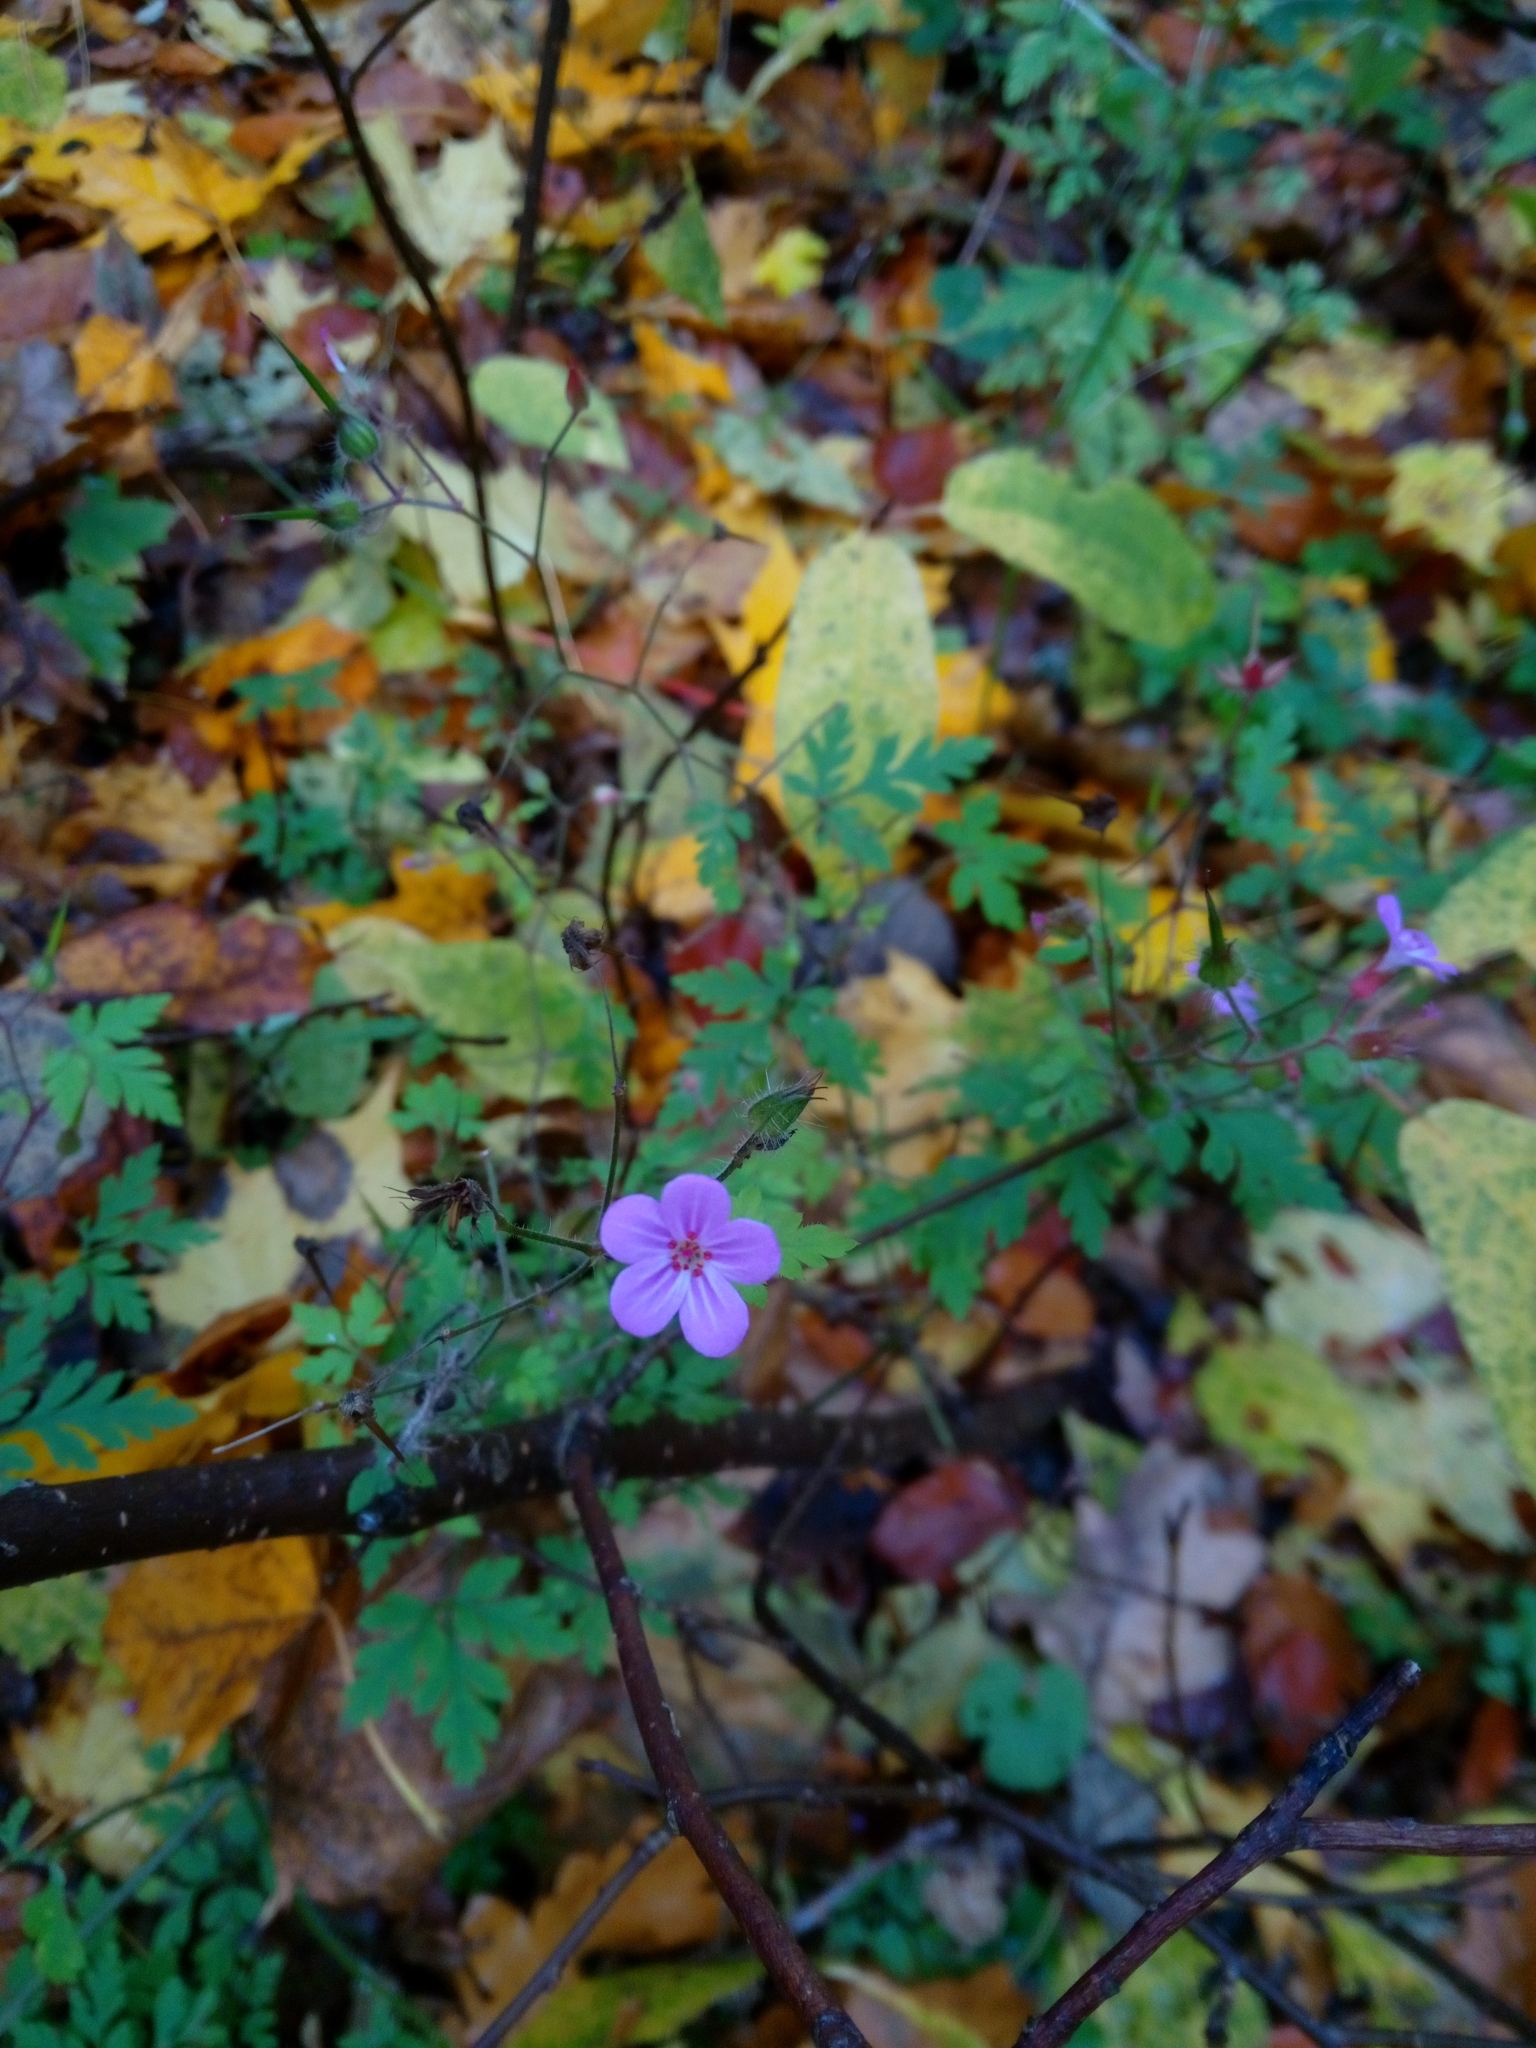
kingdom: Plantae
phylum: Tracheophyta
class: Magnoliopsida
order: Geraniales
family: Geraniaceae
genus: Geranium
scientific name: Geranium robertianum
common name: Herb-robert
